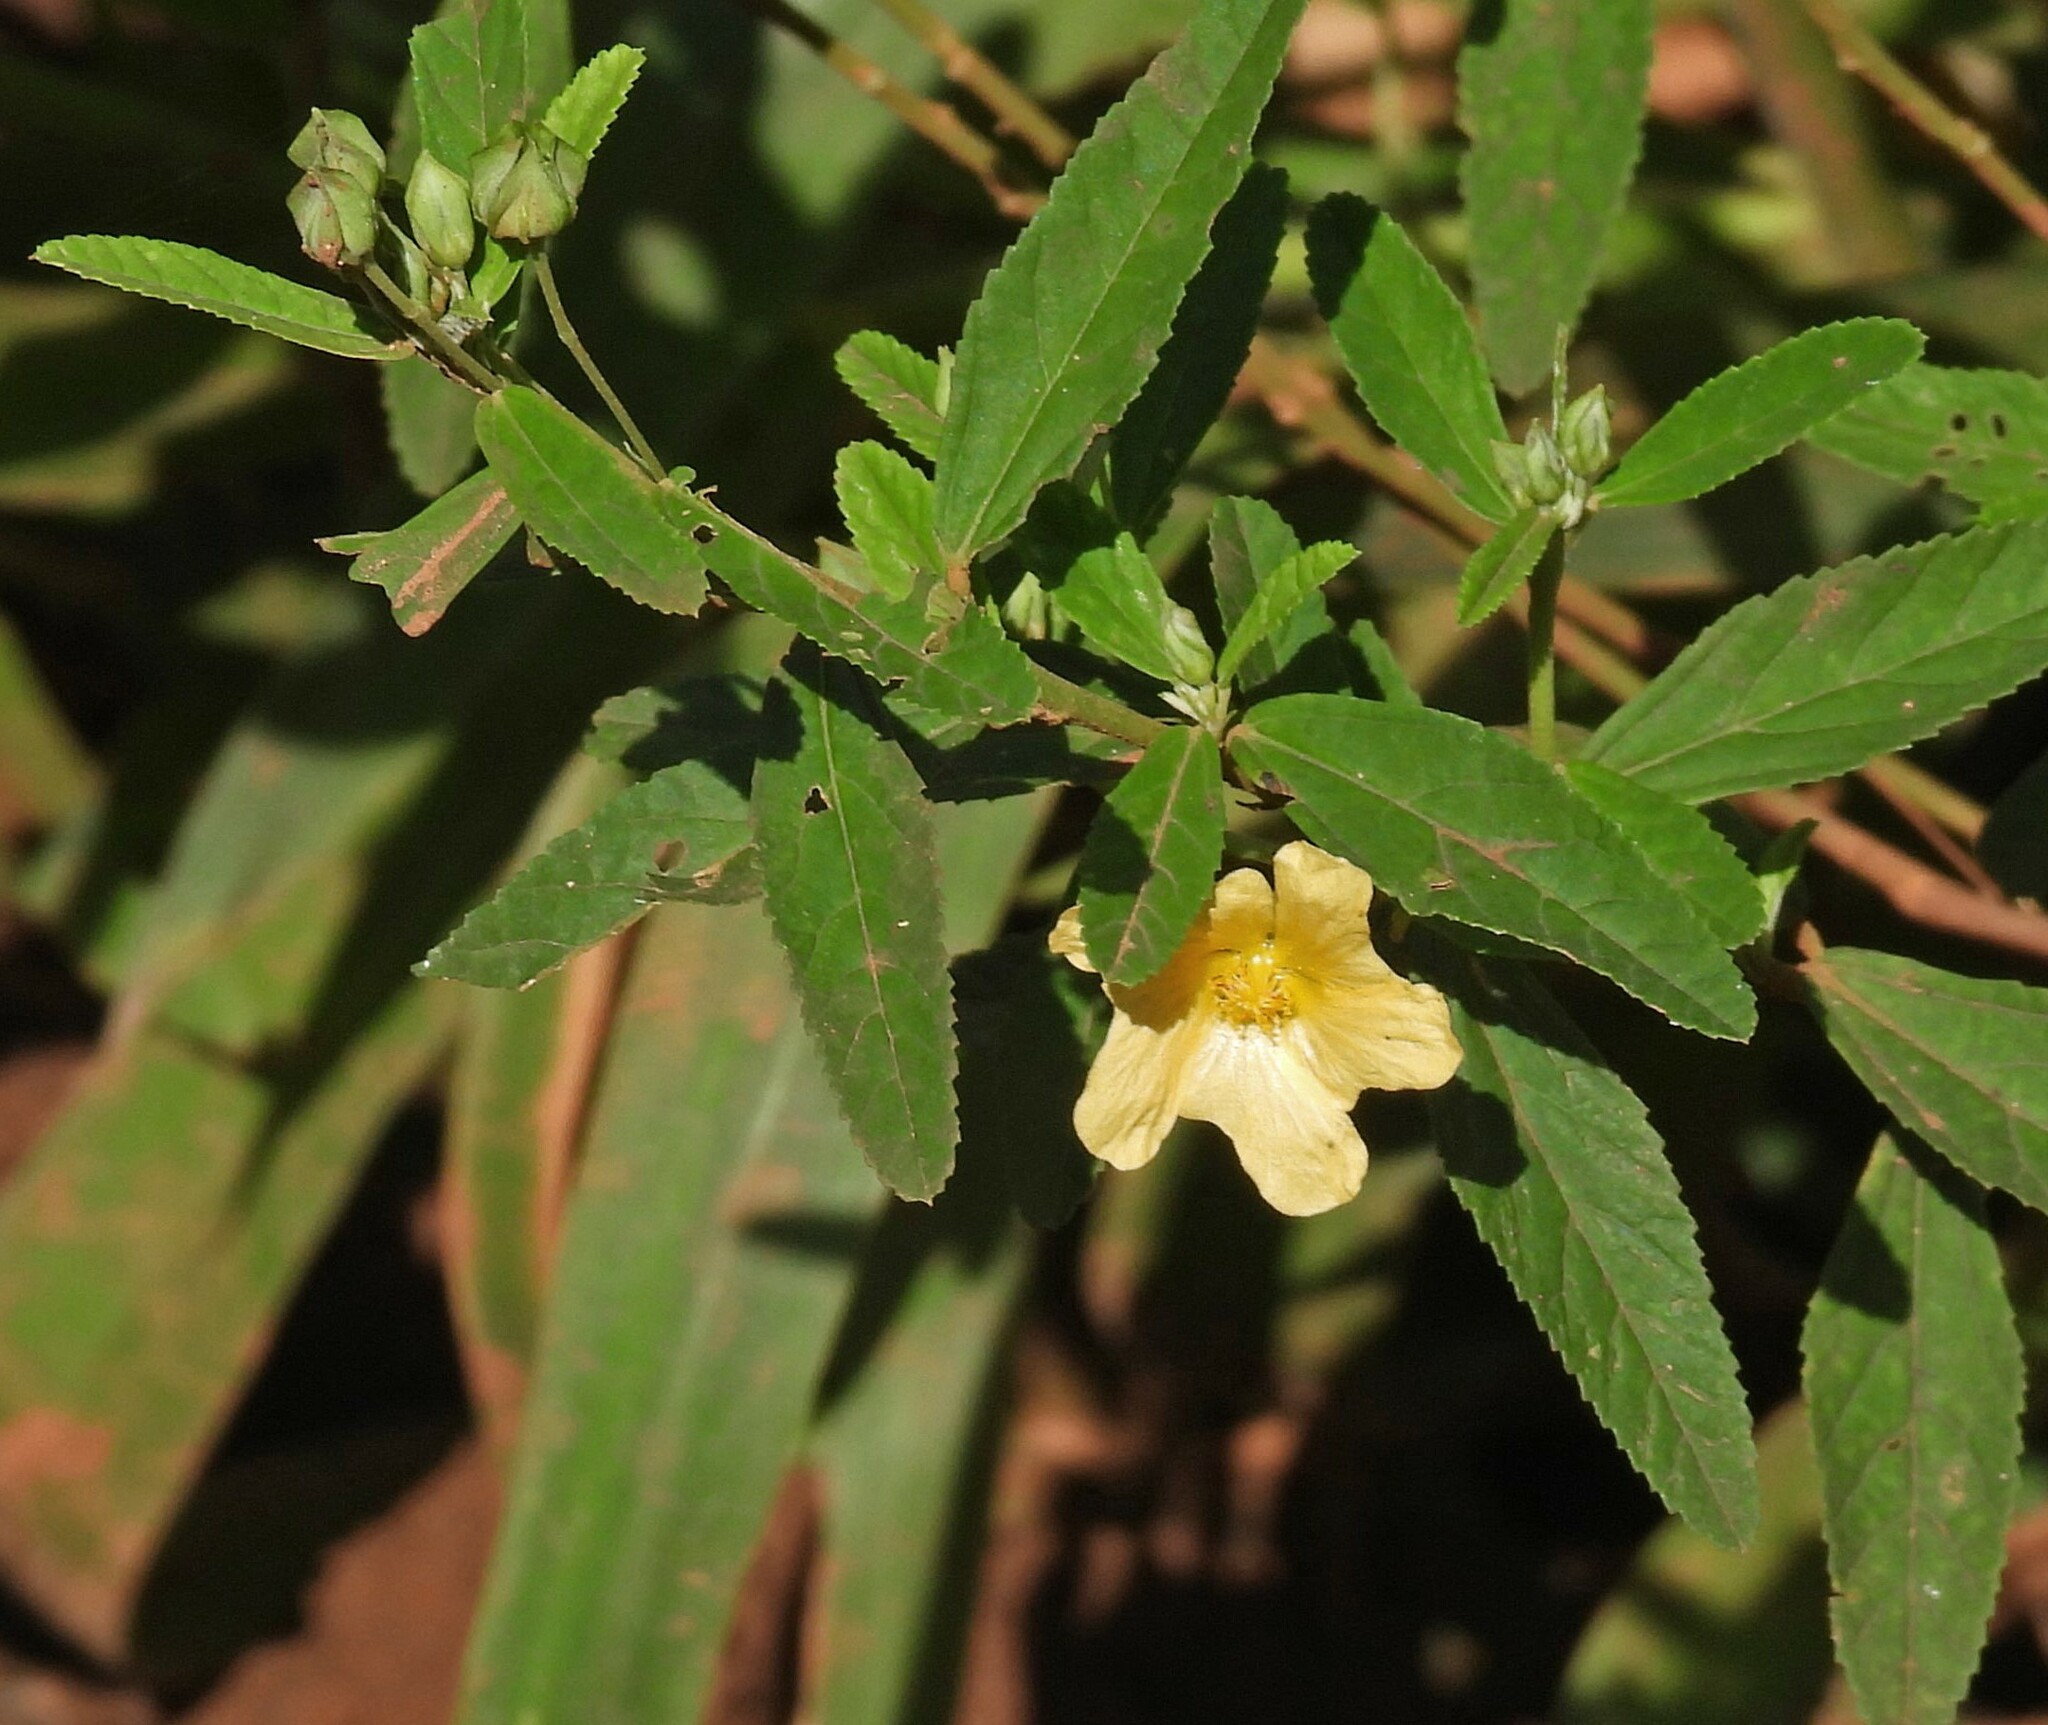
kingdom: Plantae
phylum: Tracheophyta
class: Magnoliopsida
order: Malvales
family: Malvaceae
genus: Sida
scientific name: Sida rhombifolia
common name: Queensland-hemp
